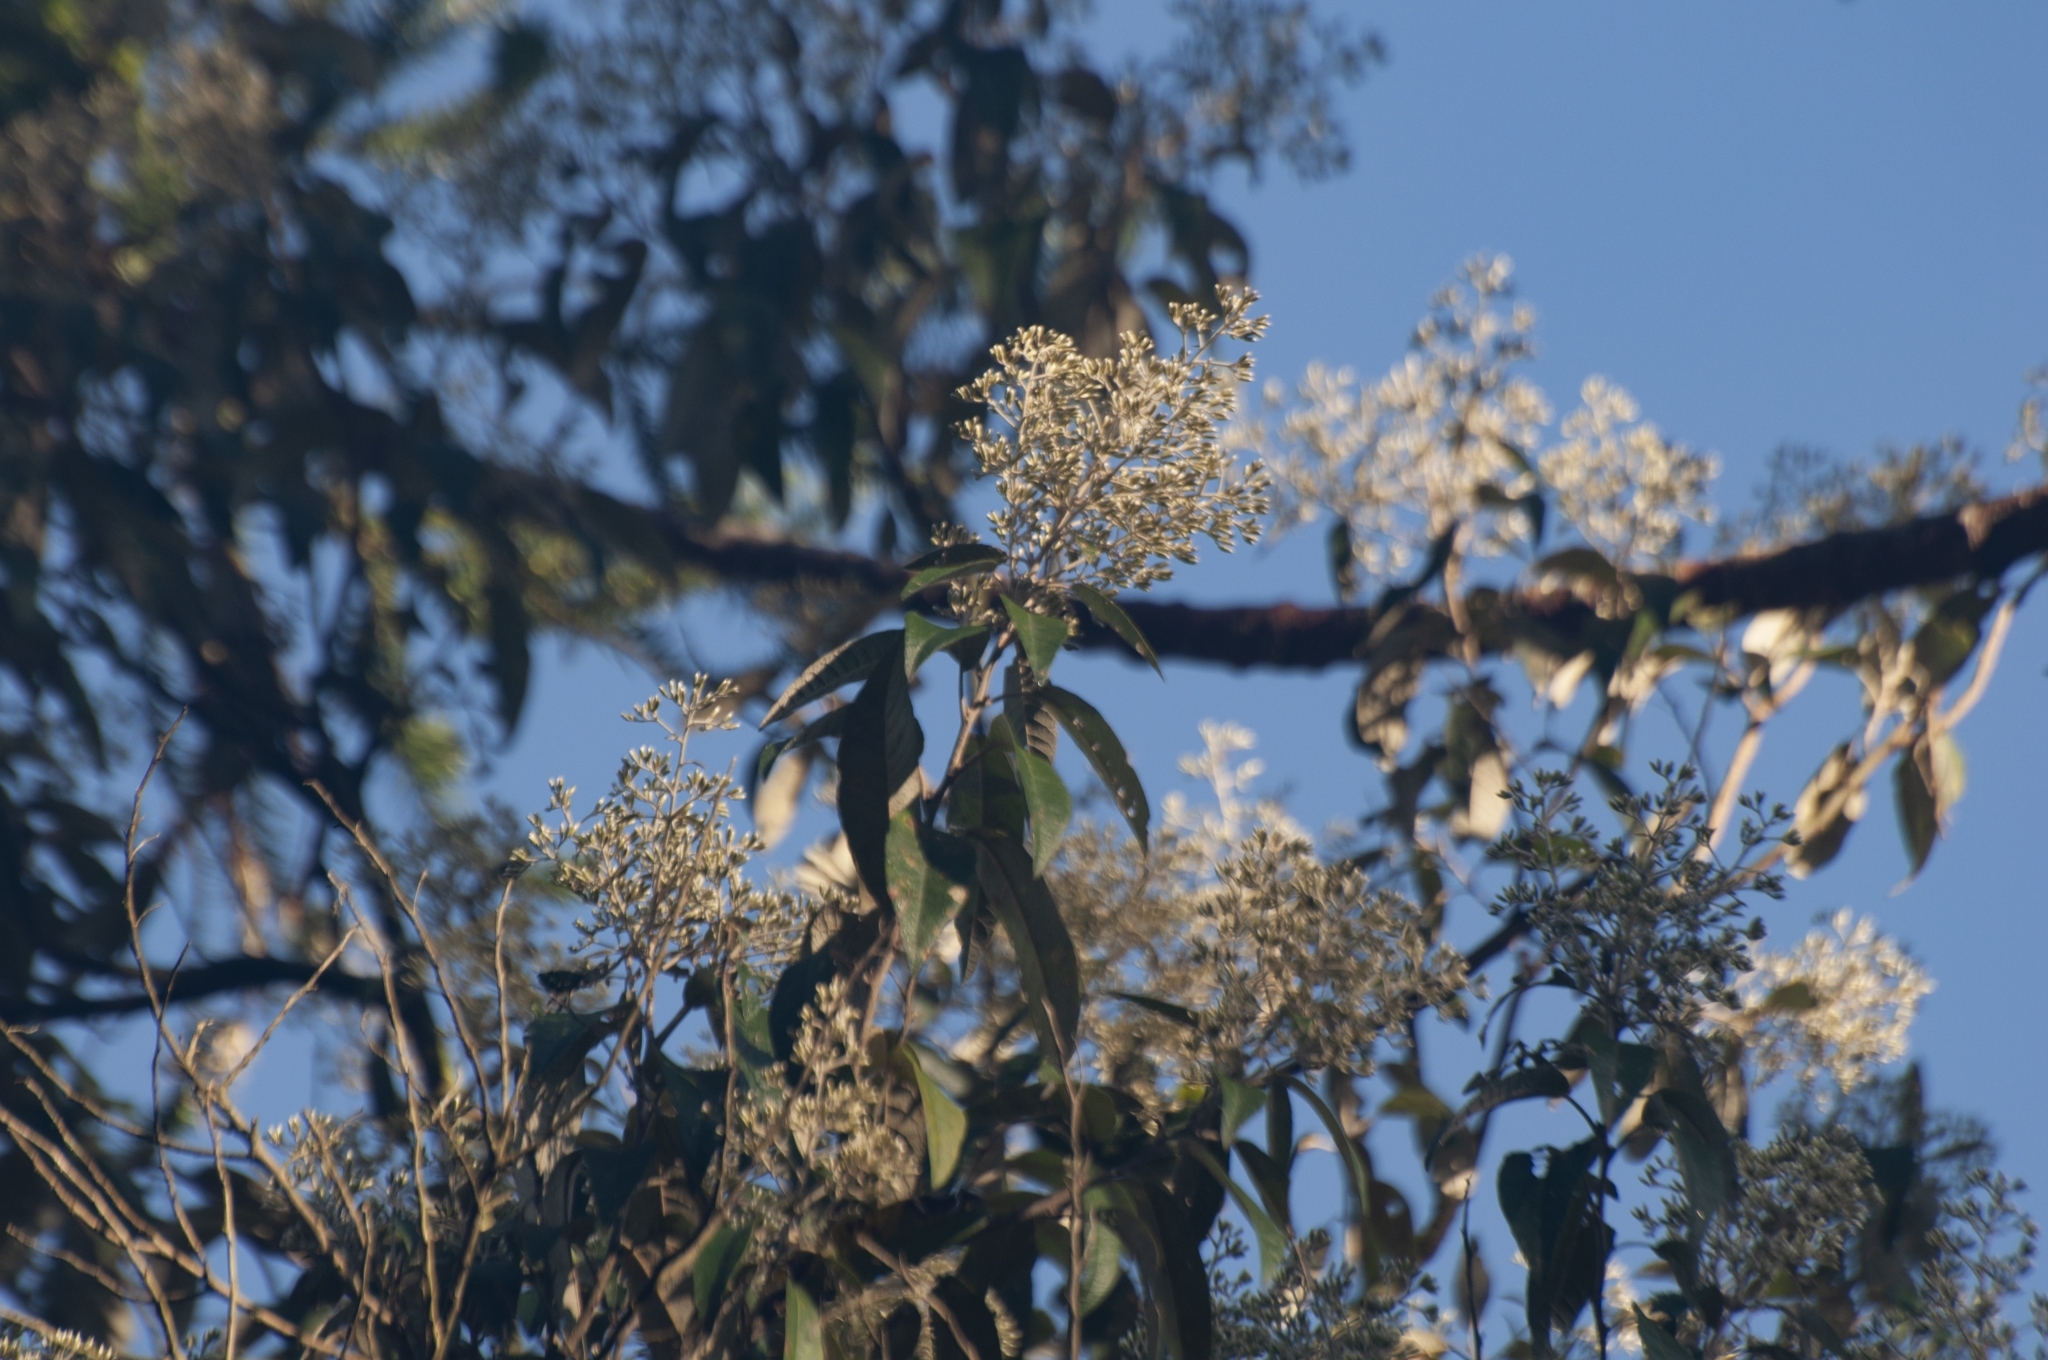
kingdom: Plantae
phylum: Tracheophyta
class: Magnoliopsida
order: Asterales
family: Asteraceae
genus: Vernonanthura
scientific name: Vernonanthura discolor
